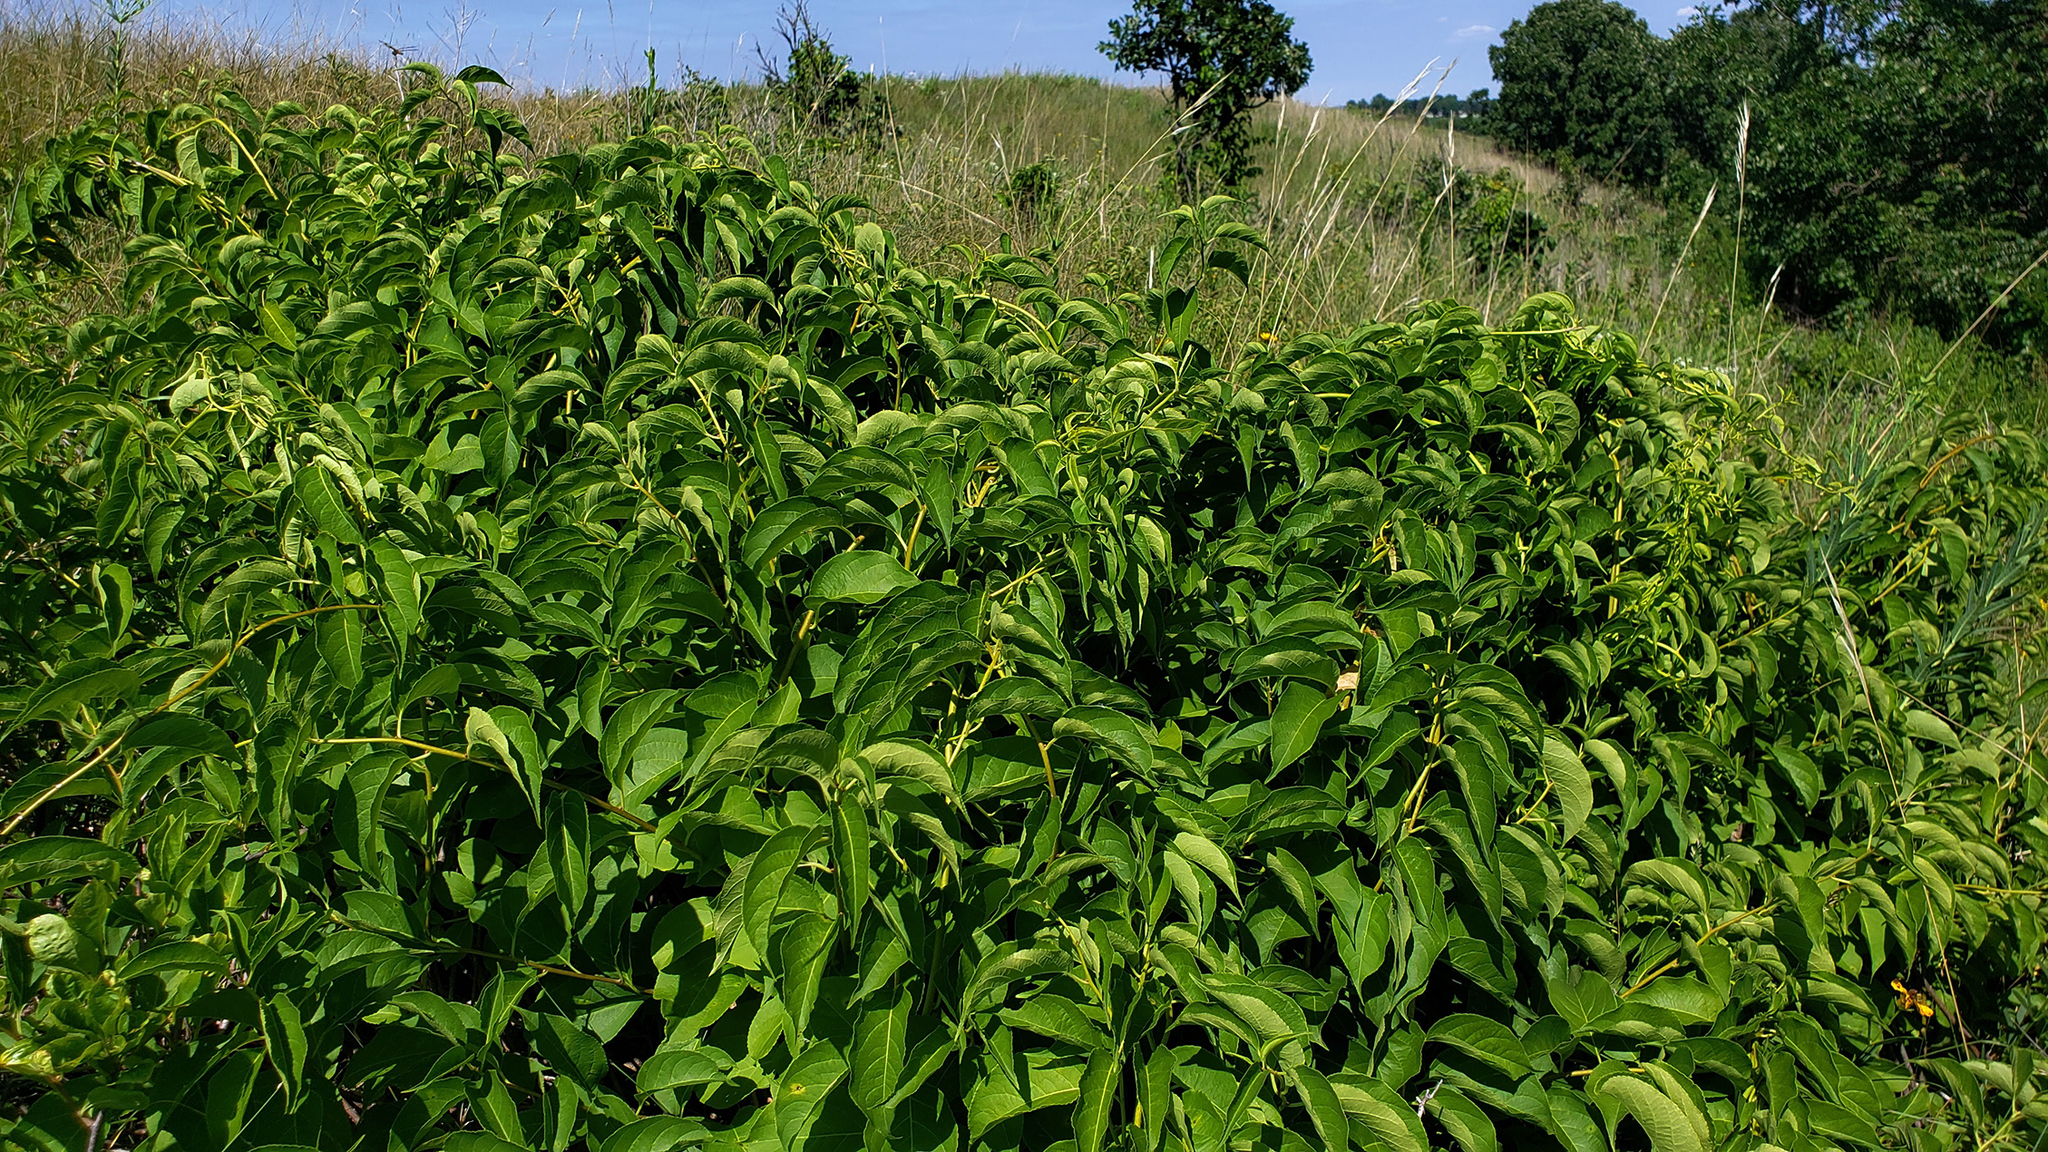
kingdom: Plantae
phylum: Tracheophyta
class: Magnoliopsida
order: Celastrales
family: Celastraceae
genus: Celastrus
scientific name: Celastrus scandens
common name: American bittersweet
